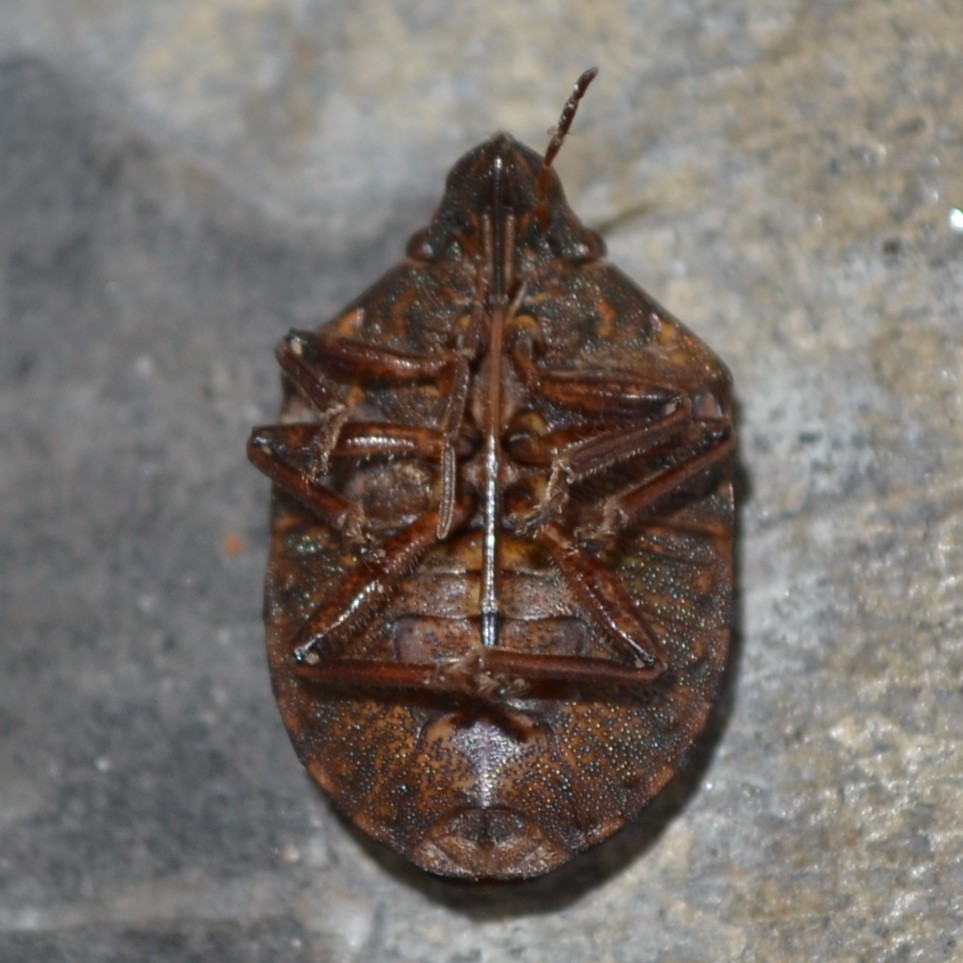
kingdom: Animalia
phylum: Arthropoda
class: Insecta
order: Hemiptera
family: Scutelleridae
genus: Tetyra
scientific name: Tetyra bipunctata
